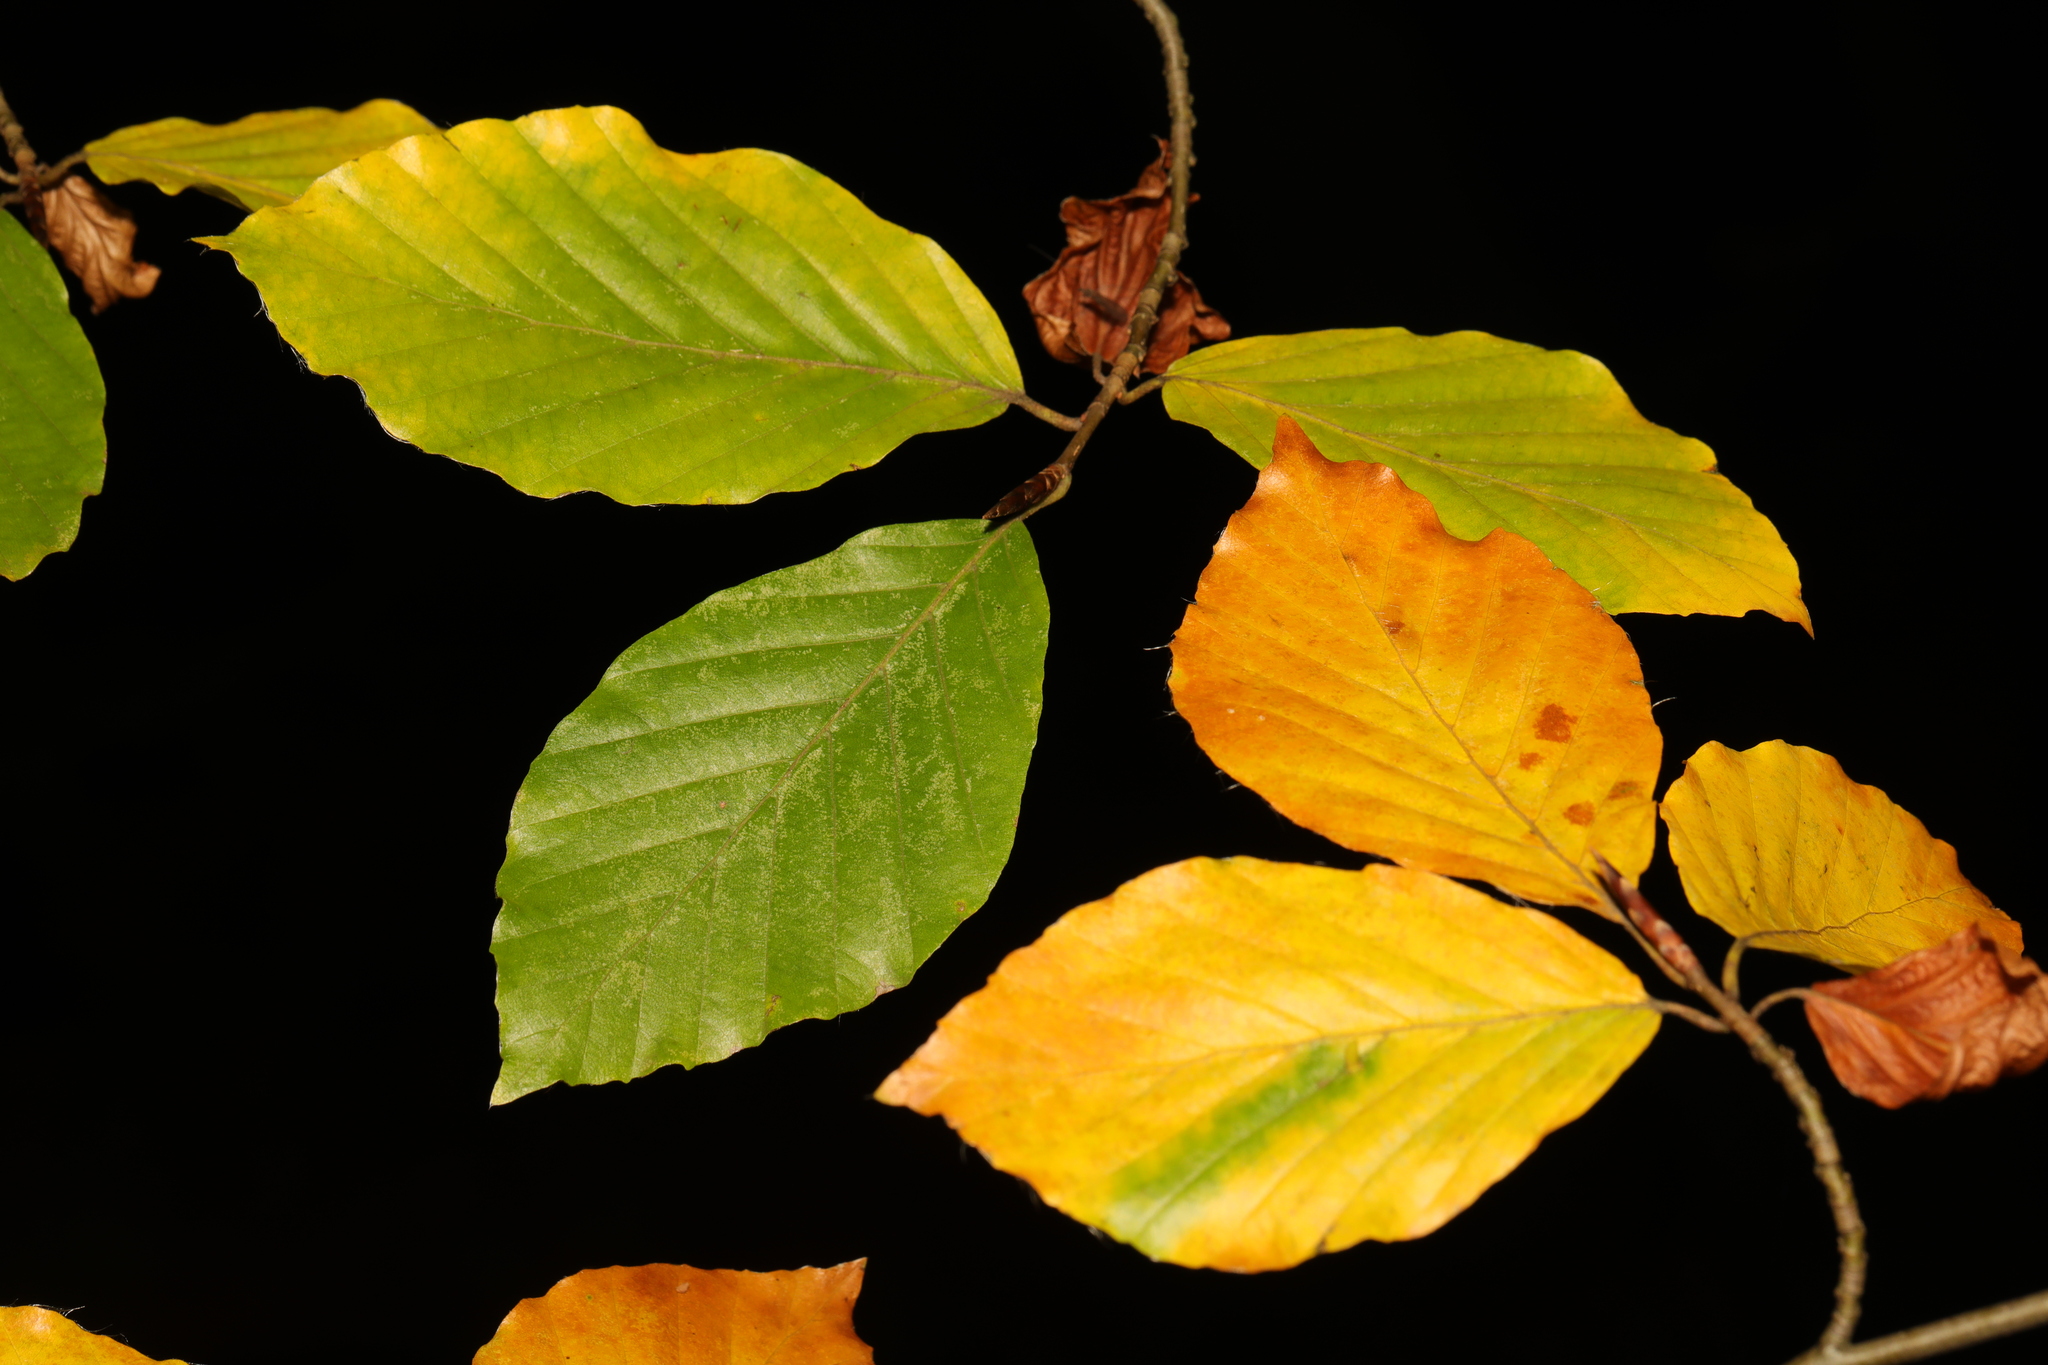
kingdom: Plantae
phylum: Tracheophyta
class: Magnoliopsida
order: Fagales
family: Fagaceae
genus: Fagus
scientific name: Fagus sylvatica
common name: Beech
